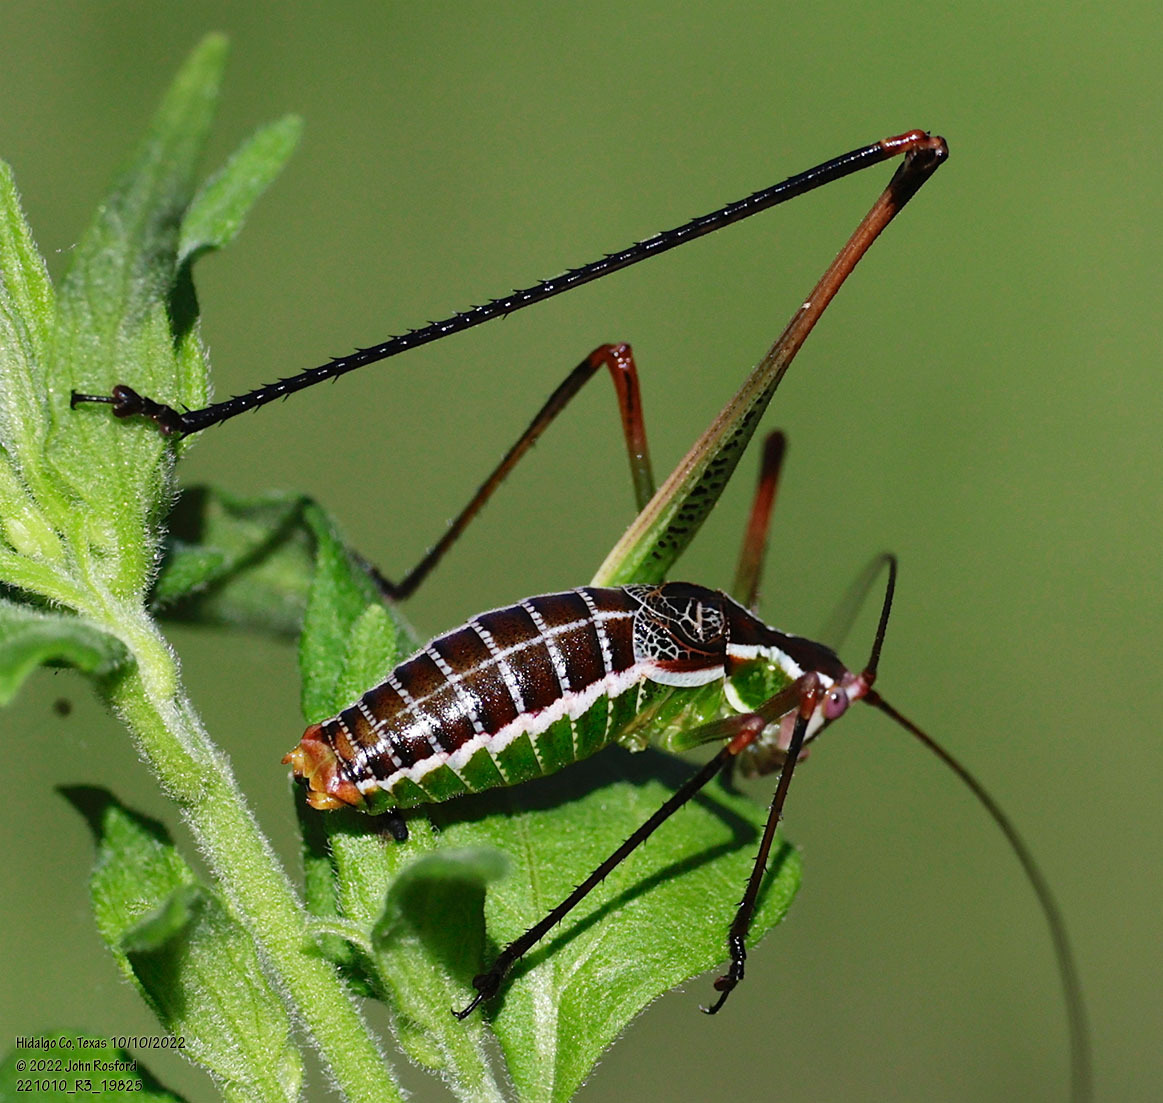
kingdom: Animalia
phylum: Arthropoda
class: Insecta
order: Orthoptera
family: Tettigoniidae
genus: Obolopteryx
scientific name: Obolopteryx castanea
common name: Chestnut short-winged katydid
